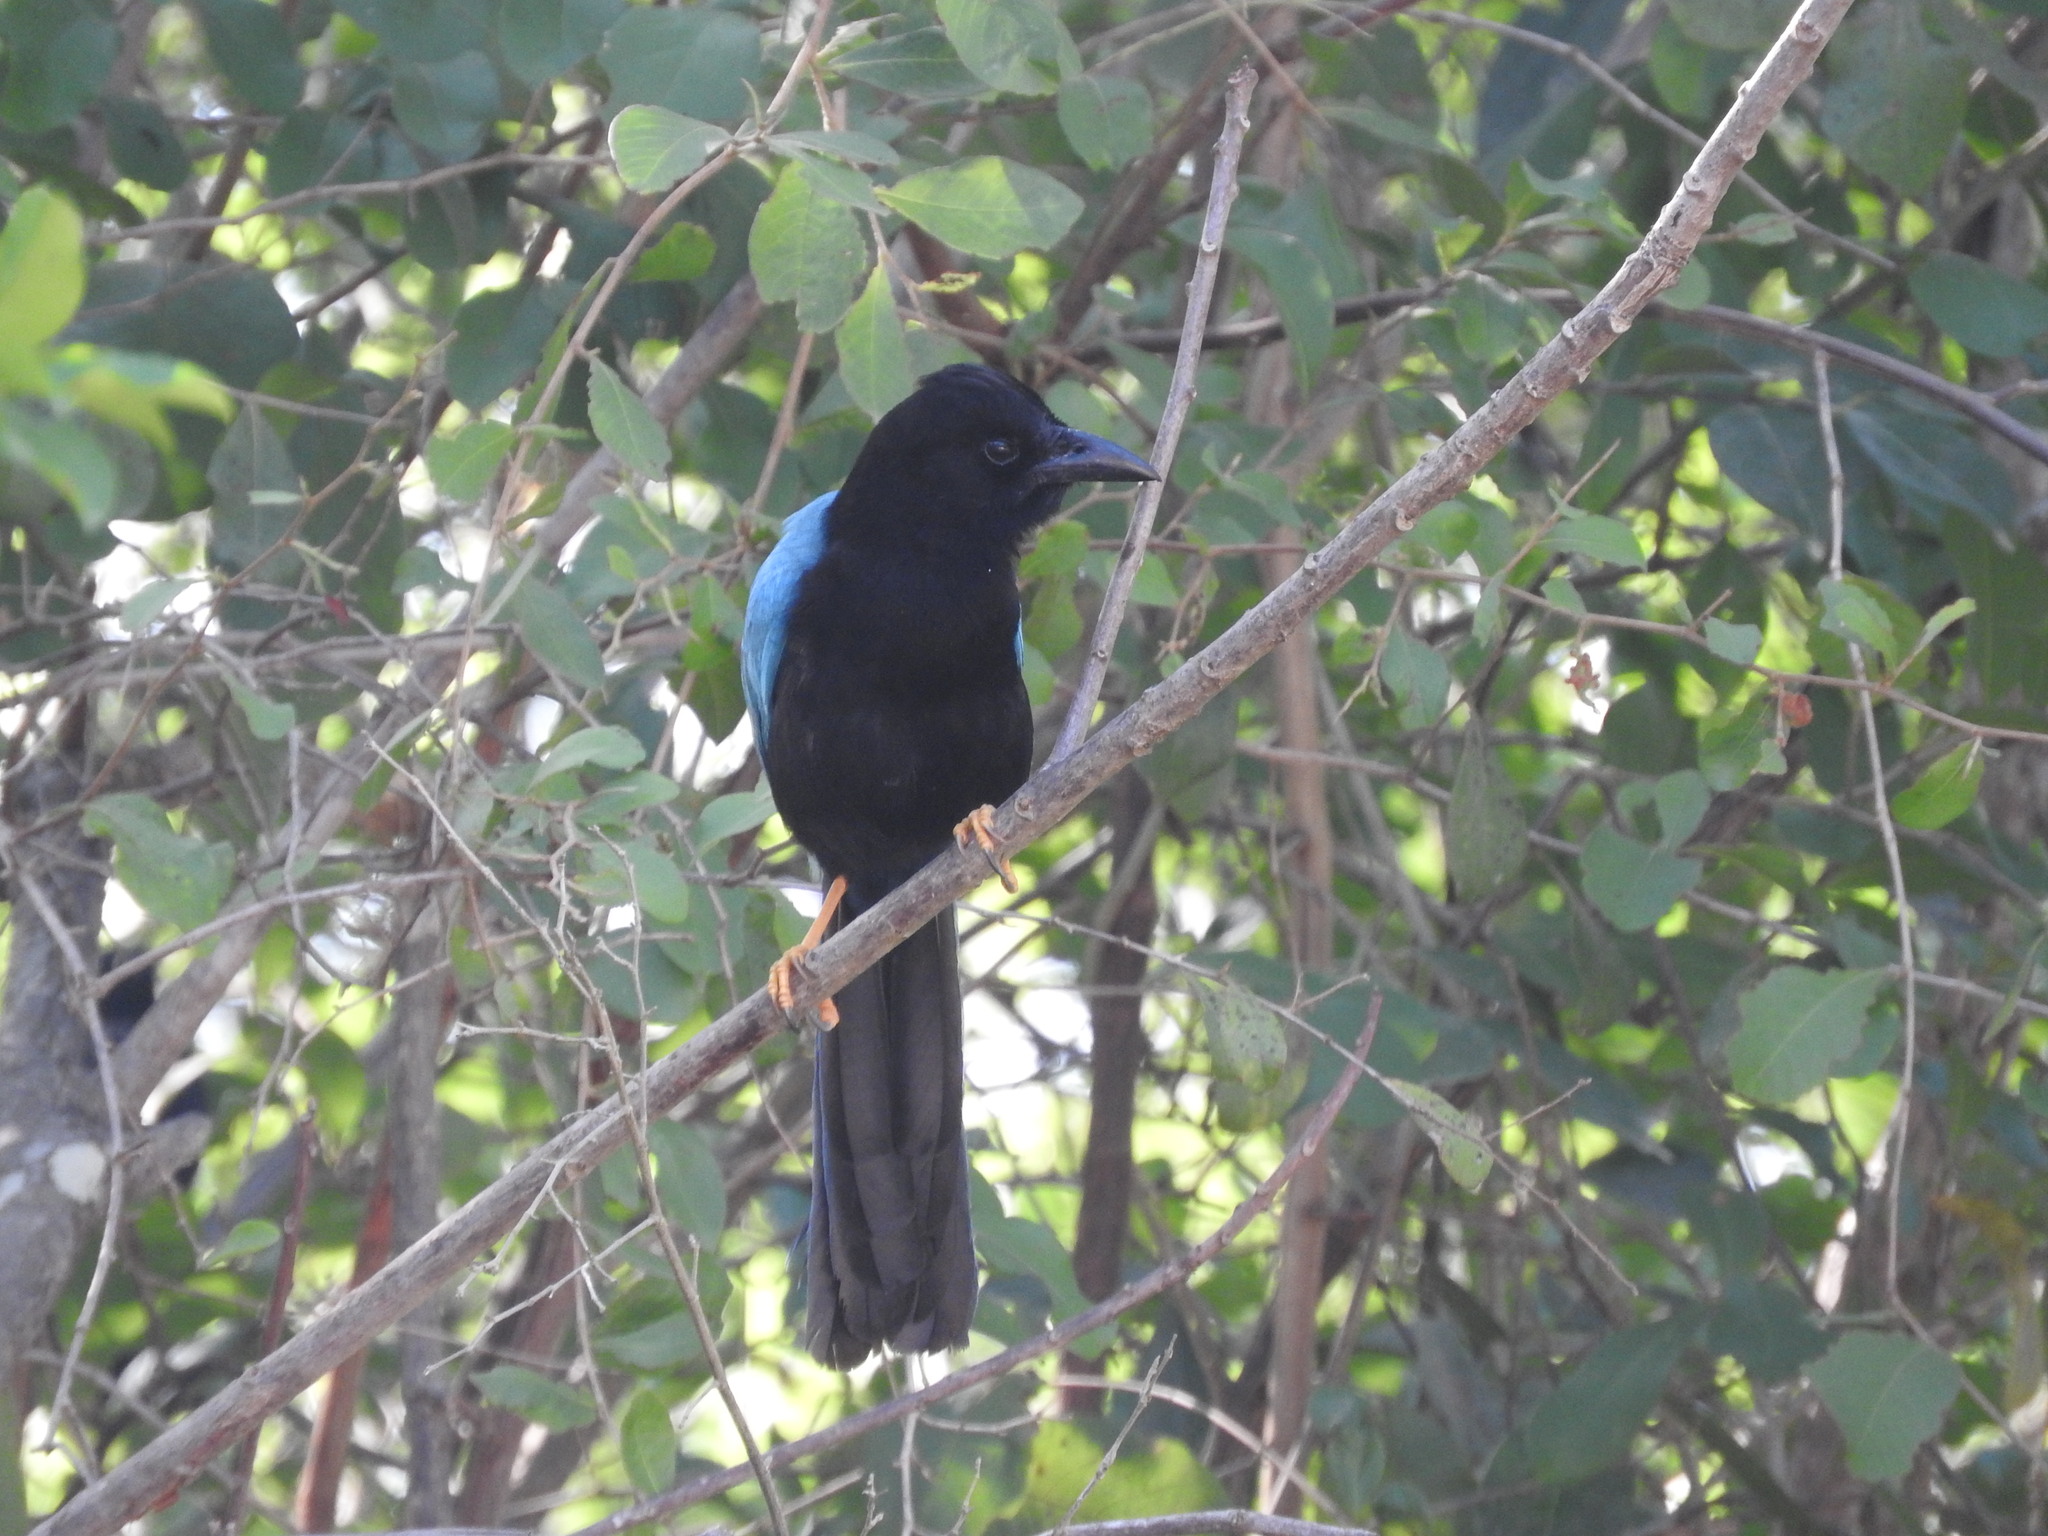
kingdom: Animalia
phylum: Chordata
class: Aves
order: Passeriformes
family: Corvidae
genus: Cyanocorax
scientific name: Cyanocorax yucatanicus
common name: Yucatan jay
